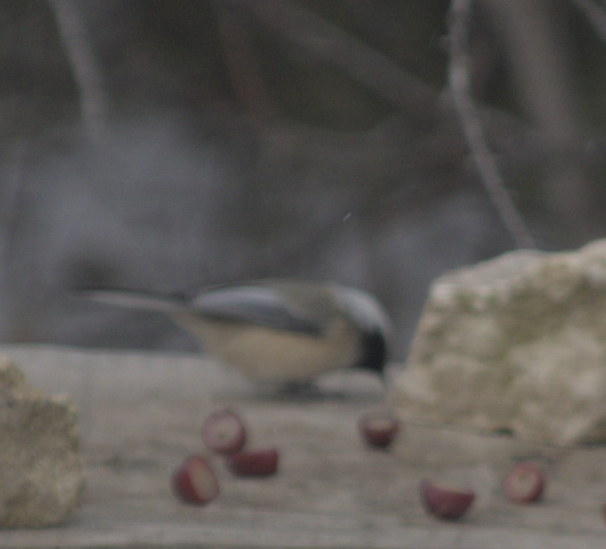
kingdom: Animalia
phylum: Chordata
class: Aves
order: Passeriformes
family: Paridae
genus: Poecile
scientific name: Poecile atricapillus
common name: Black-capped chickadee
